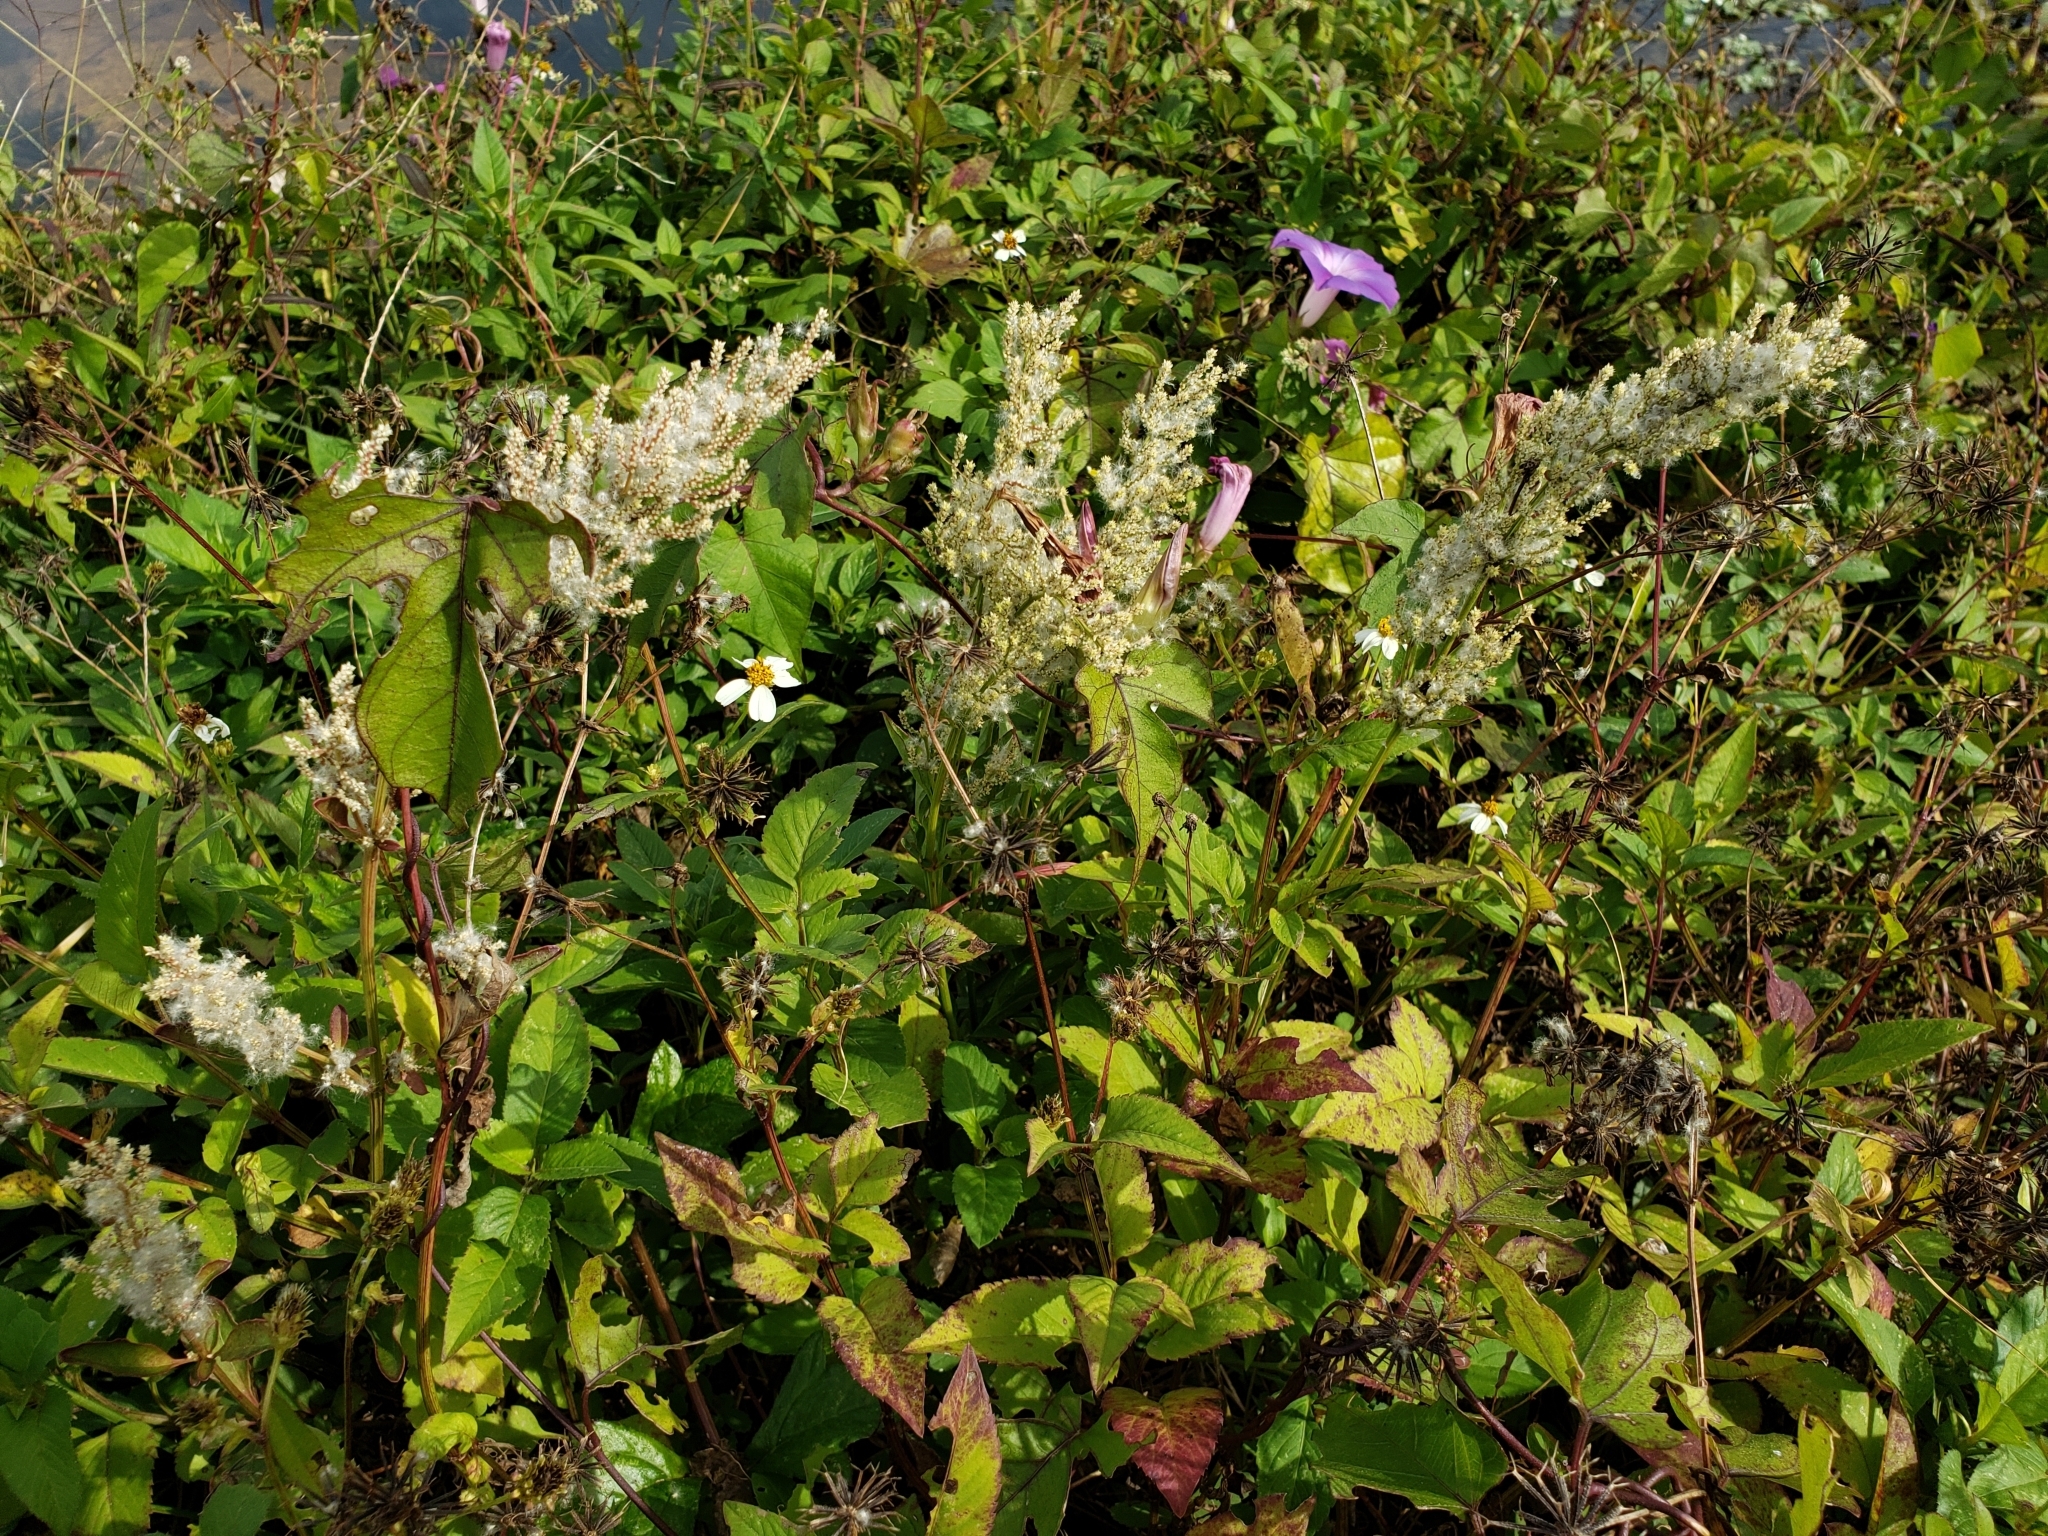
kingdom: Plantae
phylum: Tracheophyta
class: Magnoliopsida
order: Caryophyllales
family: Amaranthaceae
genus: Iresine
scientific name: Iresine diffusa
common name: Juba's-bush
